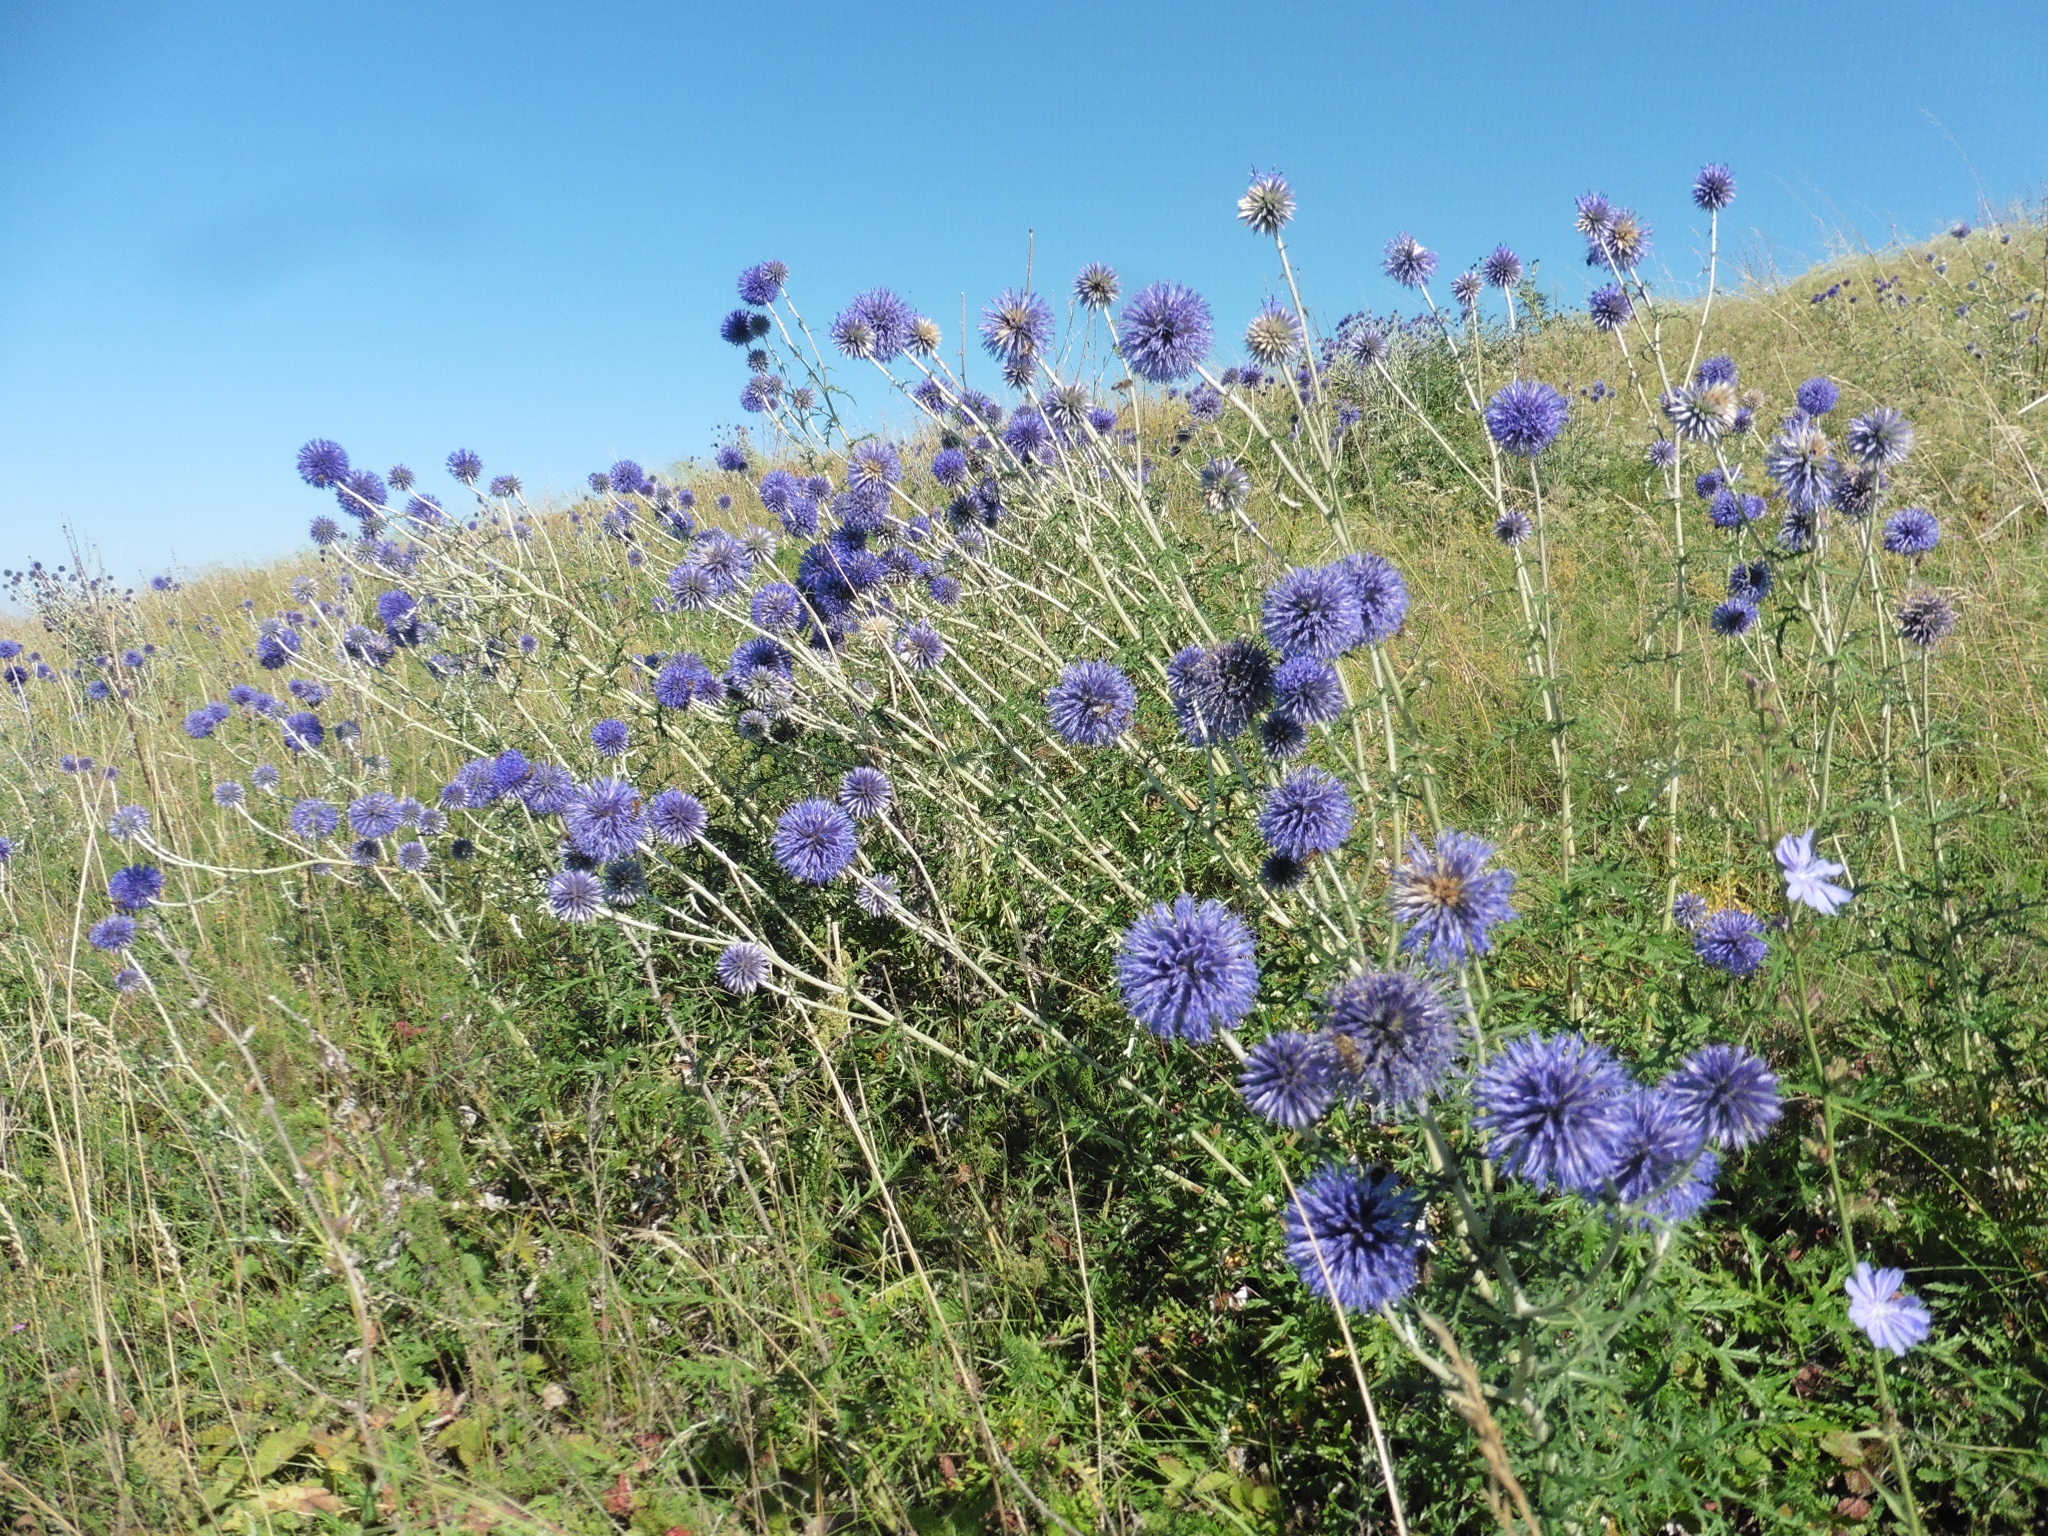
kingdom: Plantae
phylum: Tracheophyta
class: Magnoliopsida
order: Asterales
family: Asteraceae
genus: Echinops
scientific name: Echinops ritro
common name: Globe thistle
